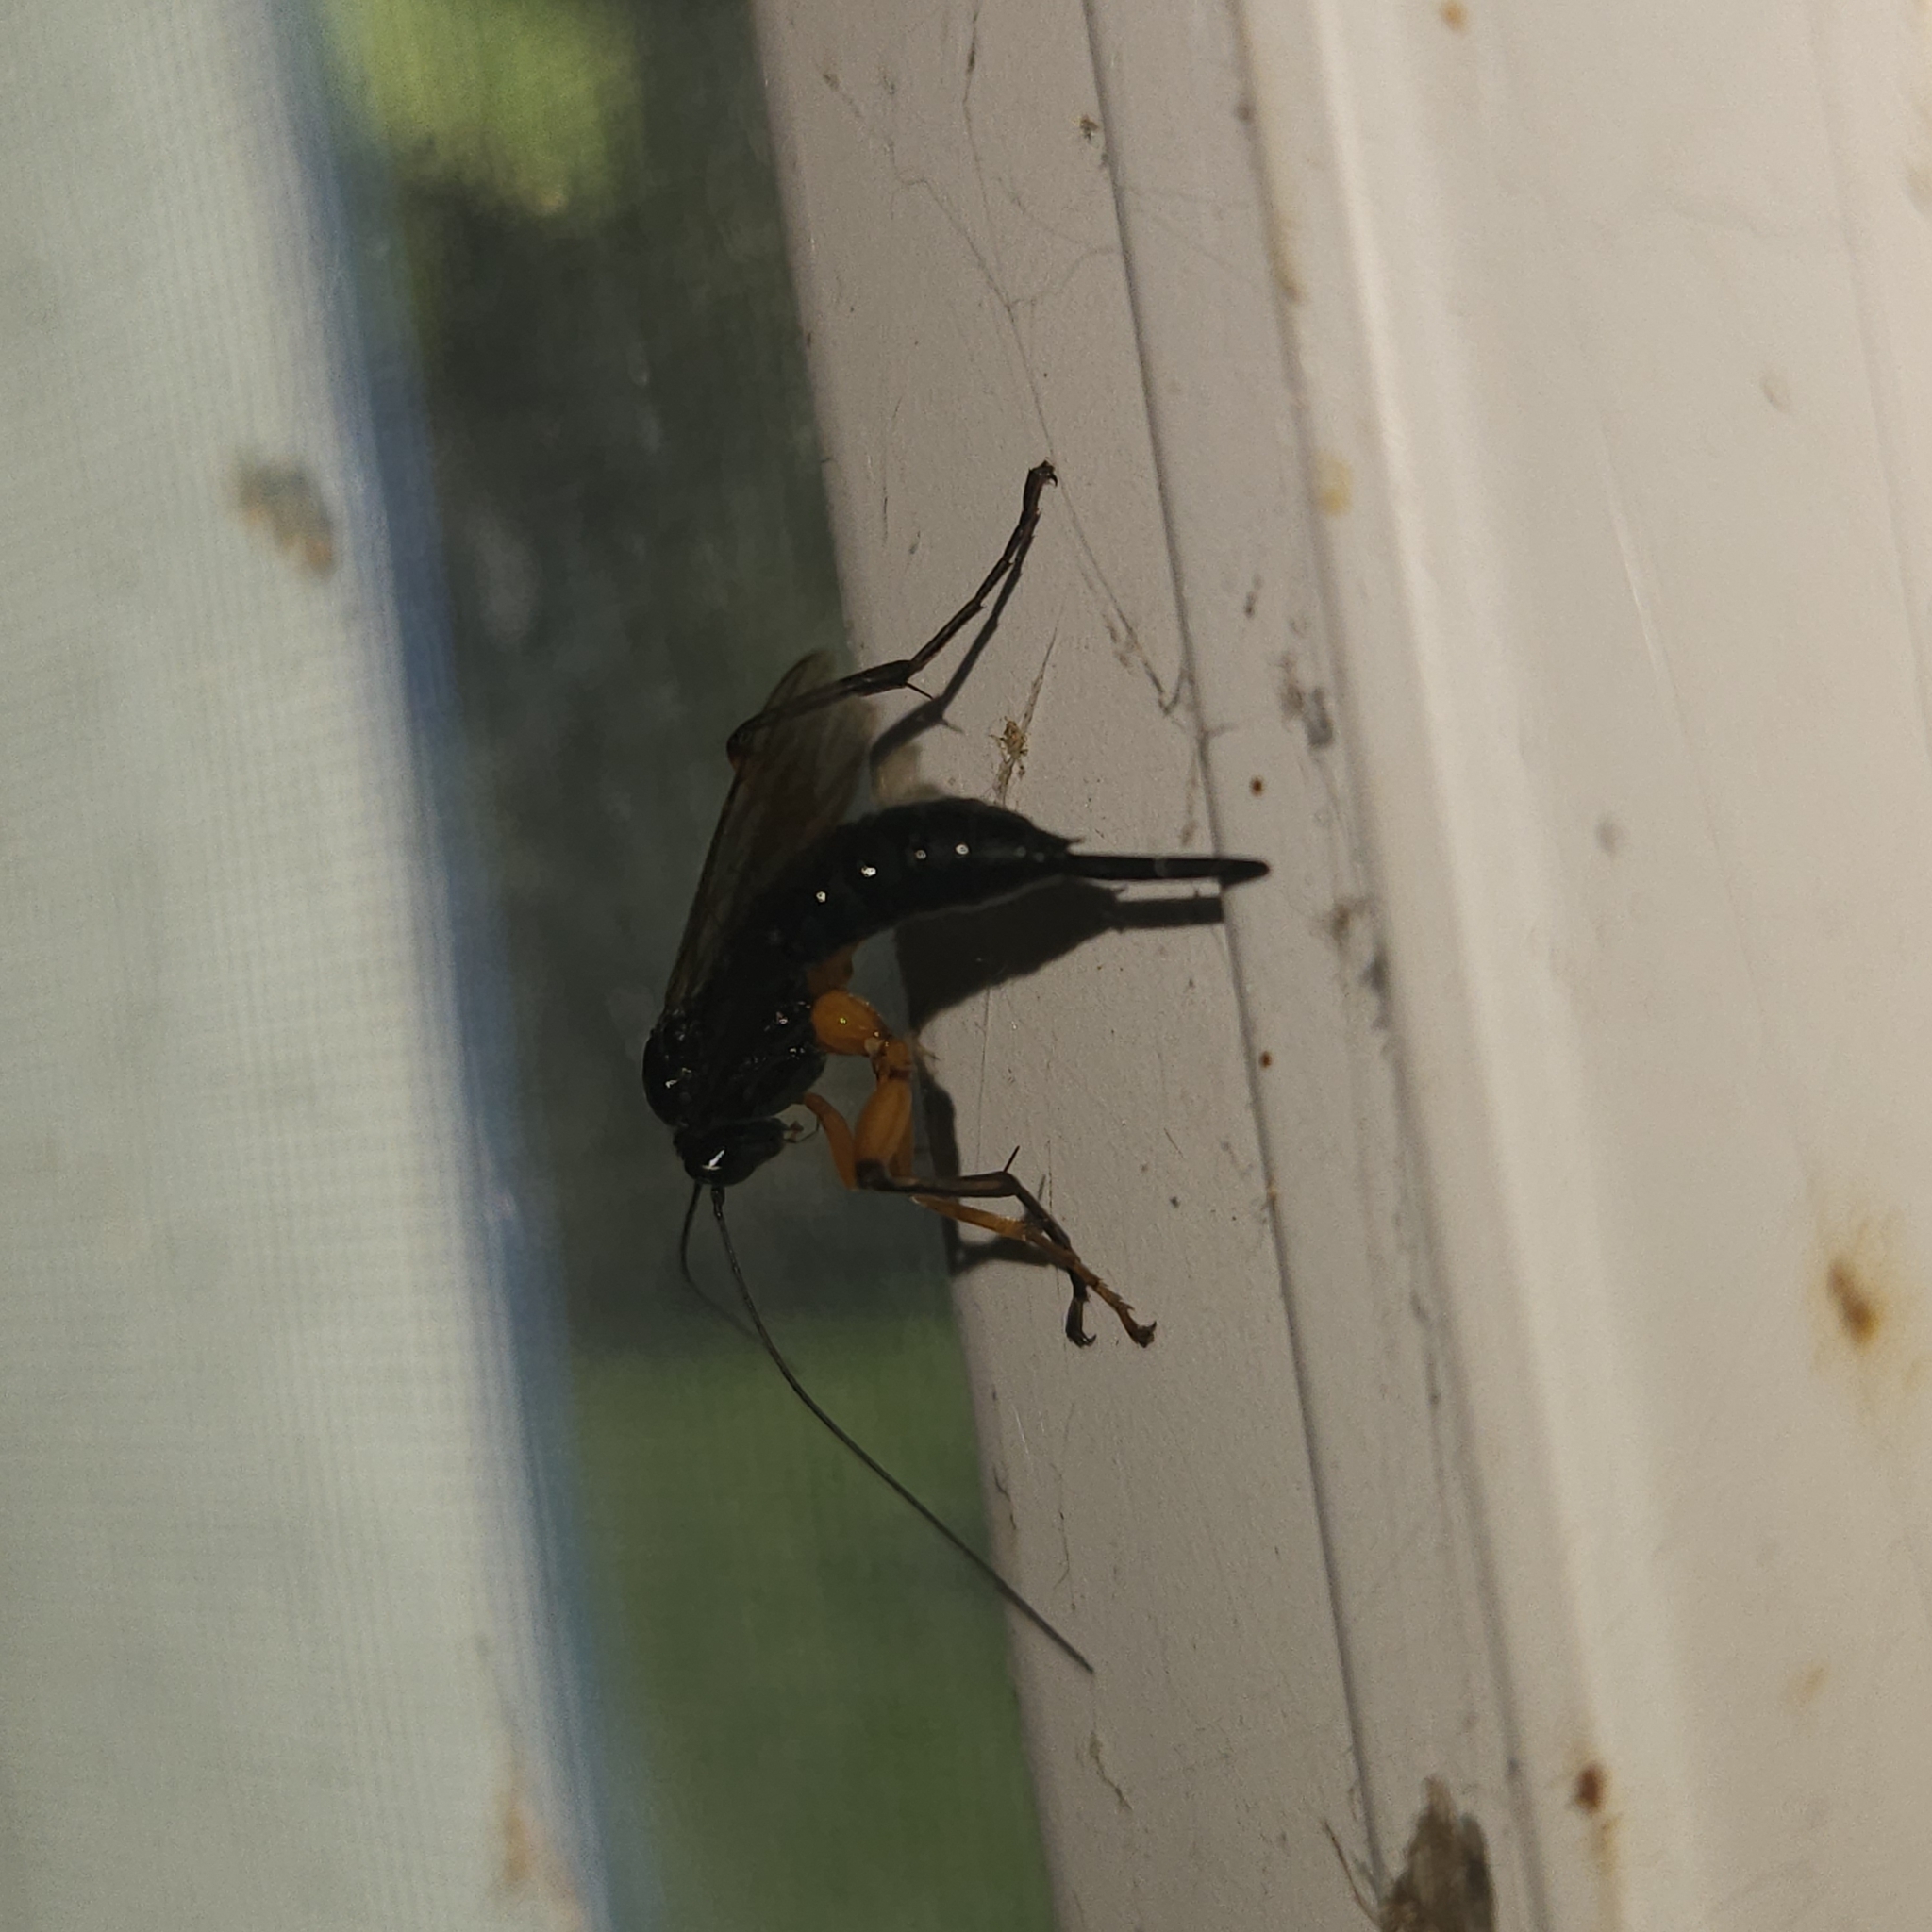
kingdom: Animalia
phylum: Arthropoda
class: Insecta
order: Hymenoptera
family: Ichneumonidae
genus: Pimpla
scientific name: Pimpla pedalis
